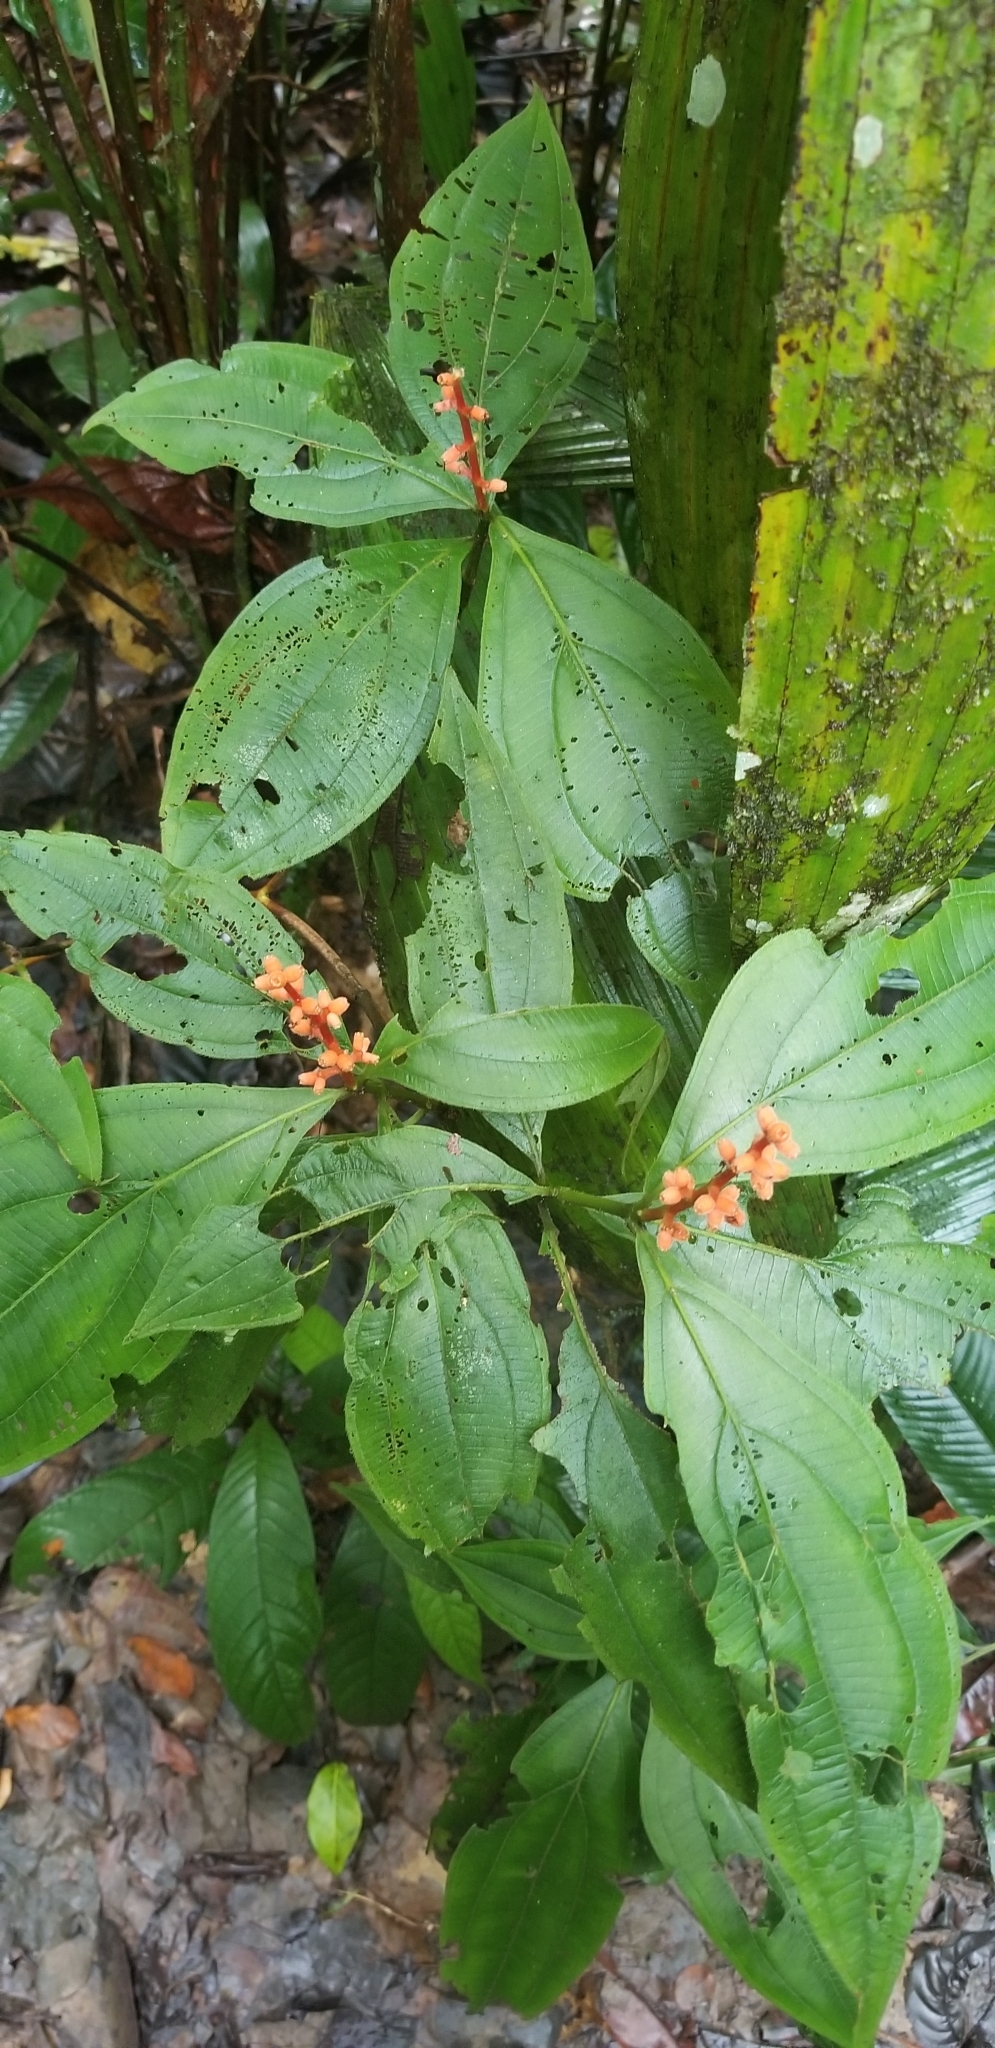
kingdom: Plantae
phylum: Tracheophyta
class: Magnoliopsida
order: Myrtales
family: Melastomataceae
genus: Miconia
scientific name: Miconia nervosa
